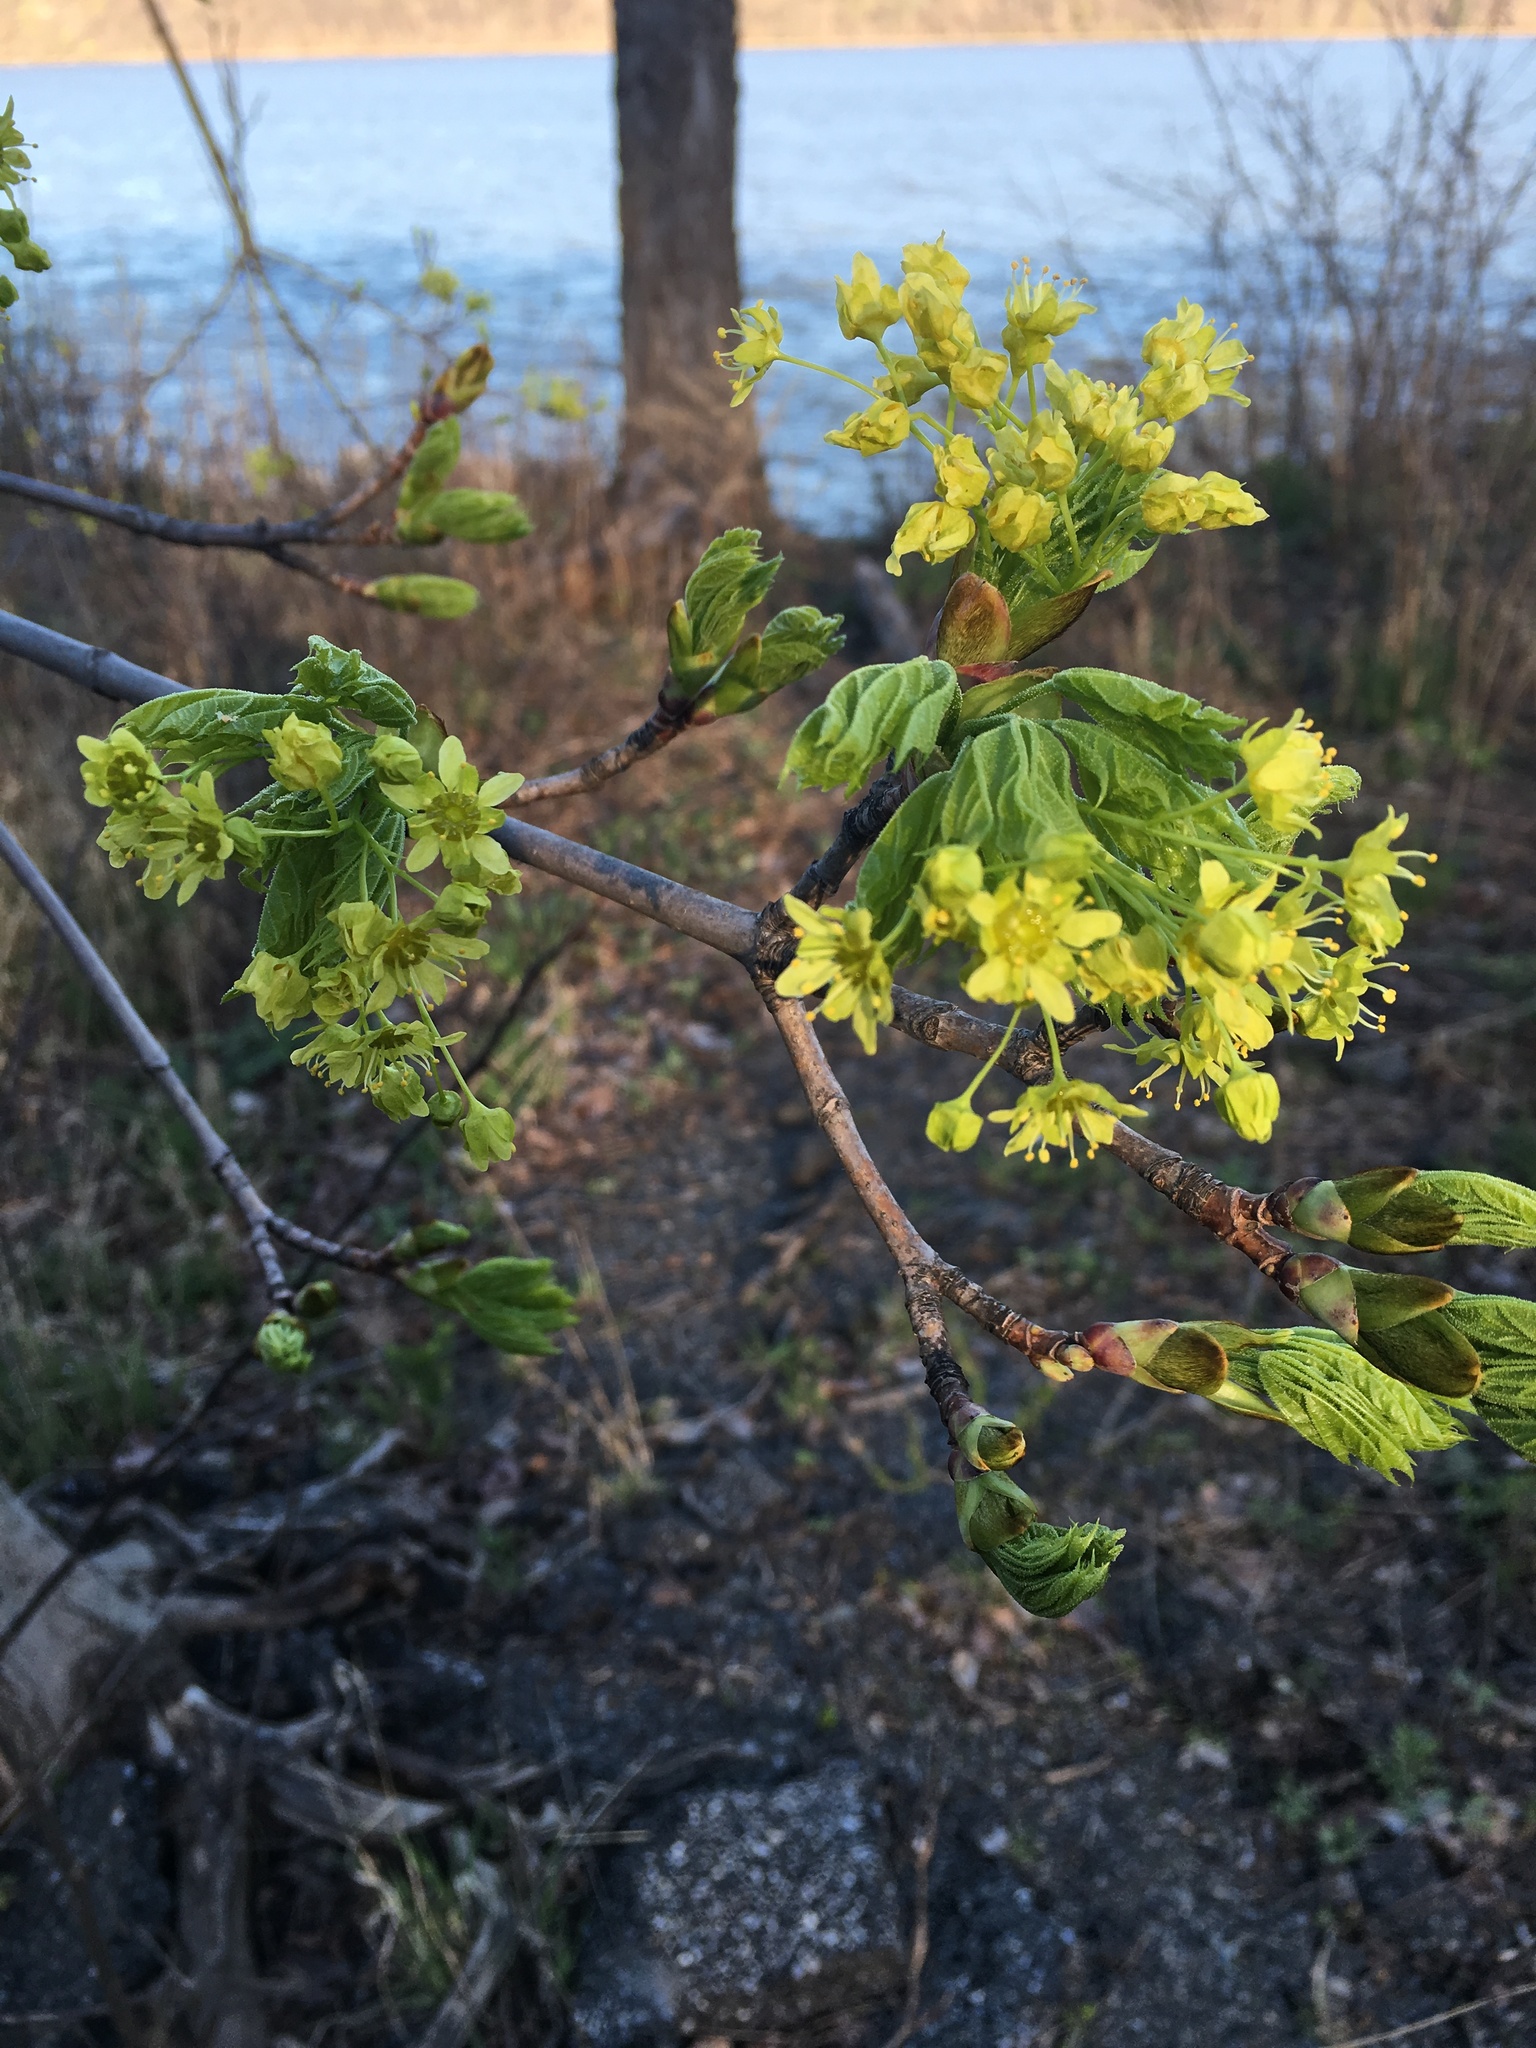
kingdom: Plantae
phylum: Tracheophyta
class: Magnoliopsida
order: Sapindales
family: Sapindaceae
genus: Acer
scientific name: Acer platanoides
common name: Norway maple
